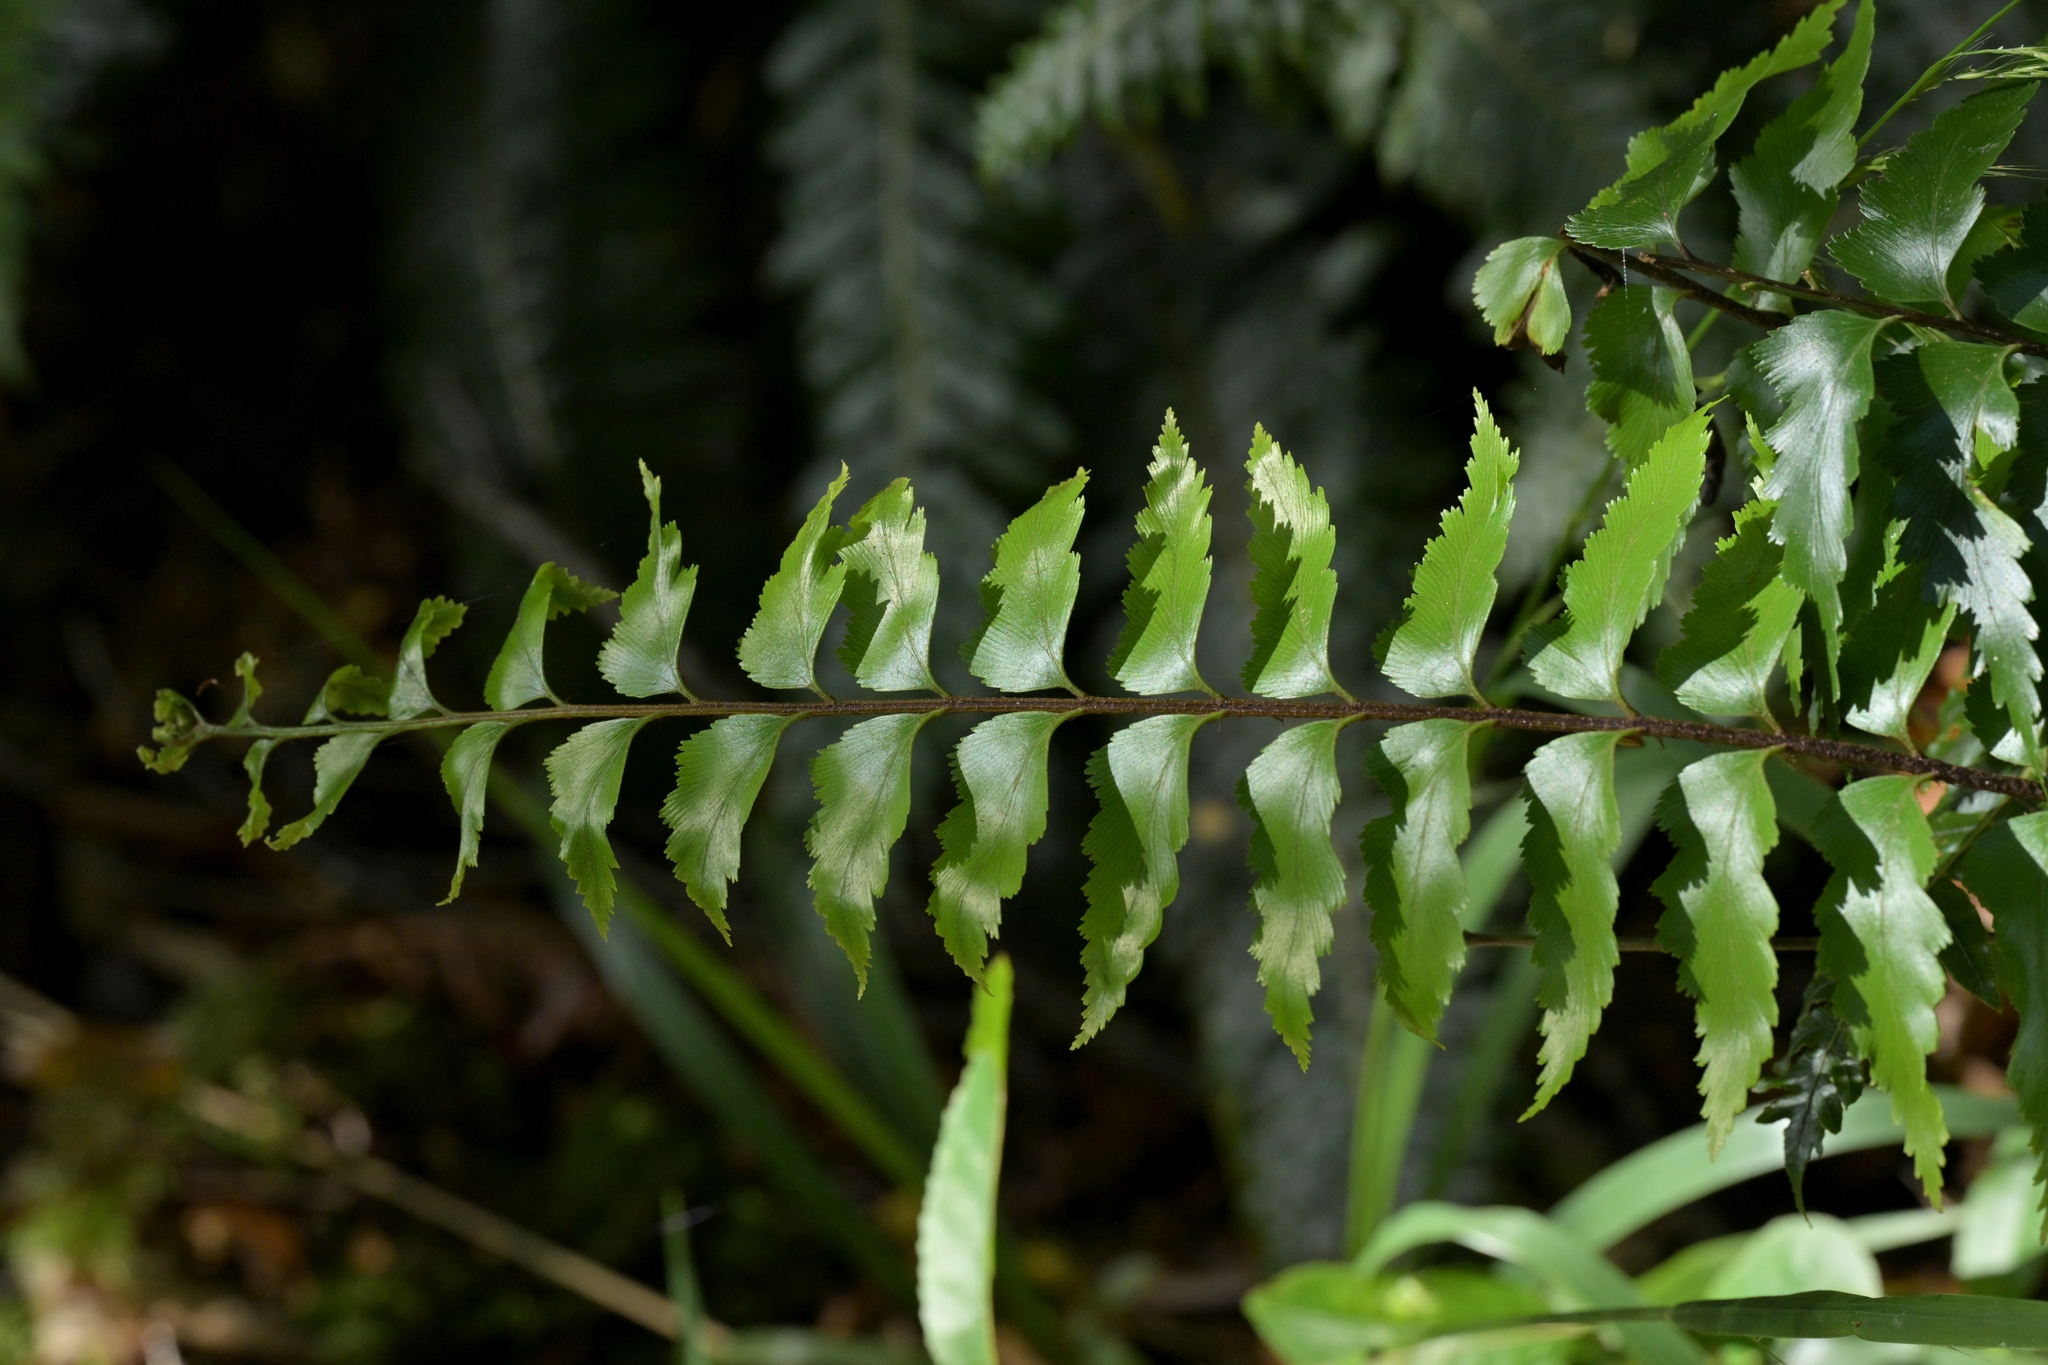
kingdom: Plantae
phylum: Tracheophyta
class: Polypodiopsida
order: Polypodiales
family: Aspleniaceae
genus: Asplenium
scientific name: Asplenium polyodon
